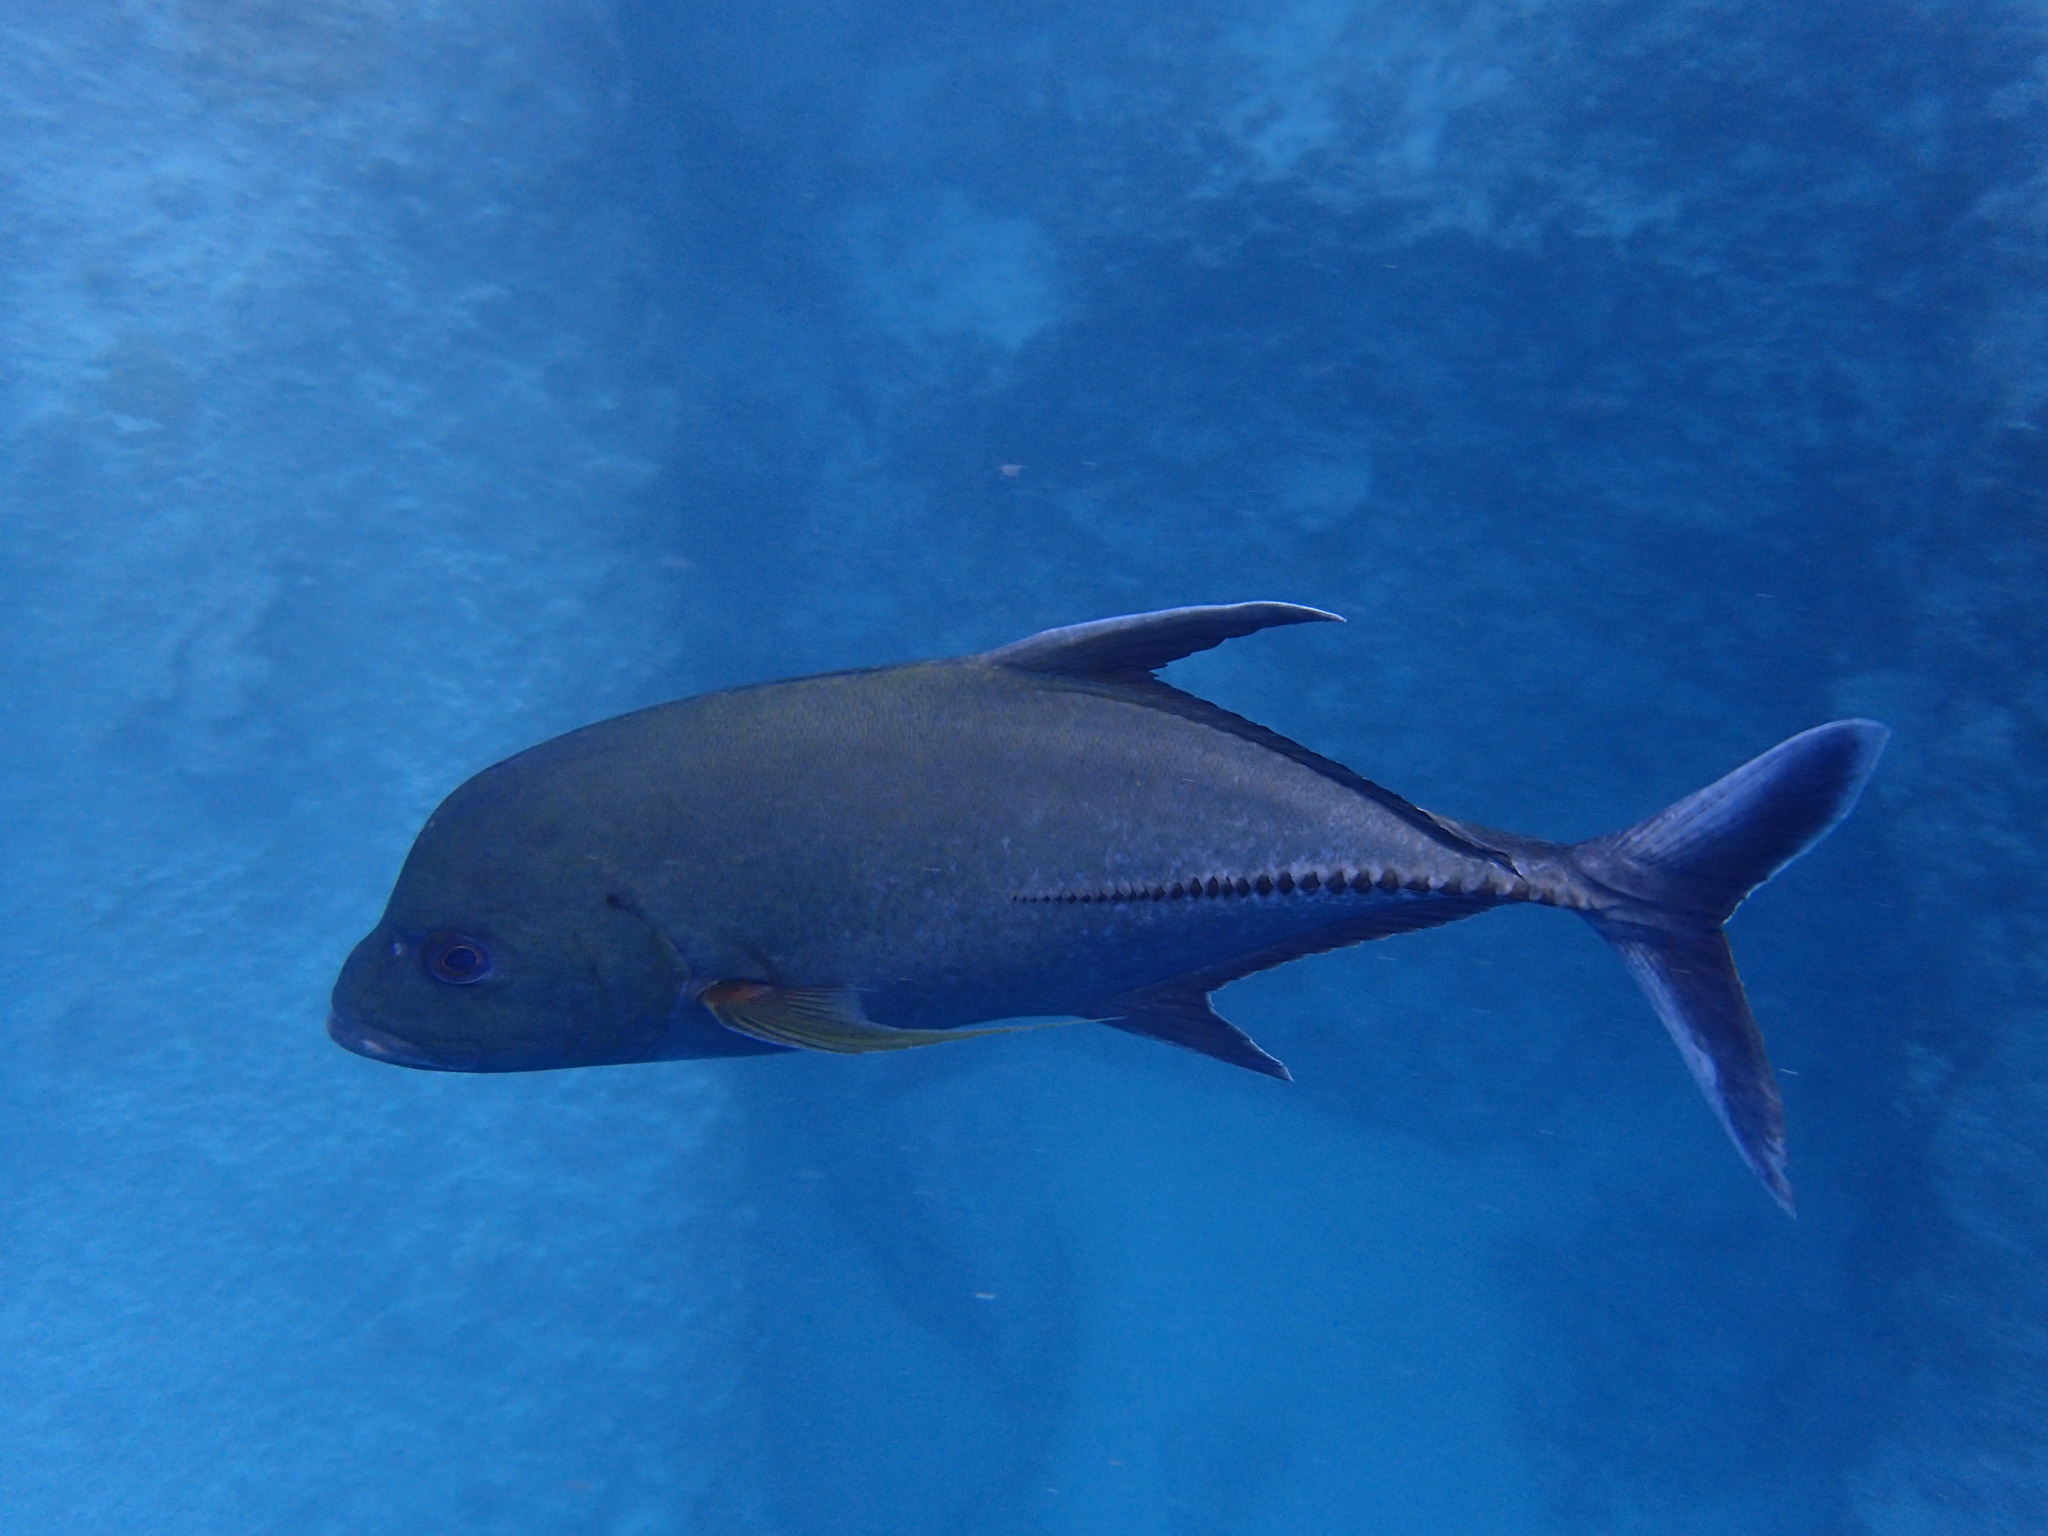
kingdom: Animalia
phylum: Chordata
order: Perciformes
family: Carangidae
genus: Caranx
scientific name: Caranx lugubris
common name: Black jack
